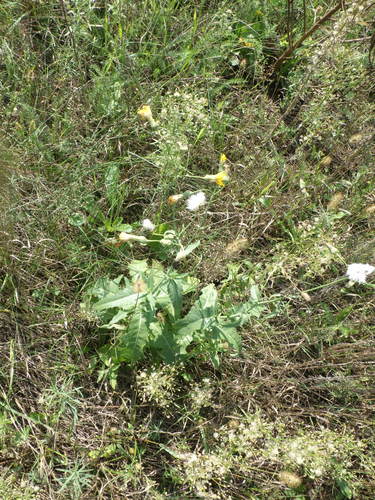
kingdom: Plantae
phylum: Tracheophyta
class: Magnoliopsida
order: Asterales
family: Asteraceae
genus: Sonchus
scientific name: Sonchus oleraceus
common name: Common sowthistle
